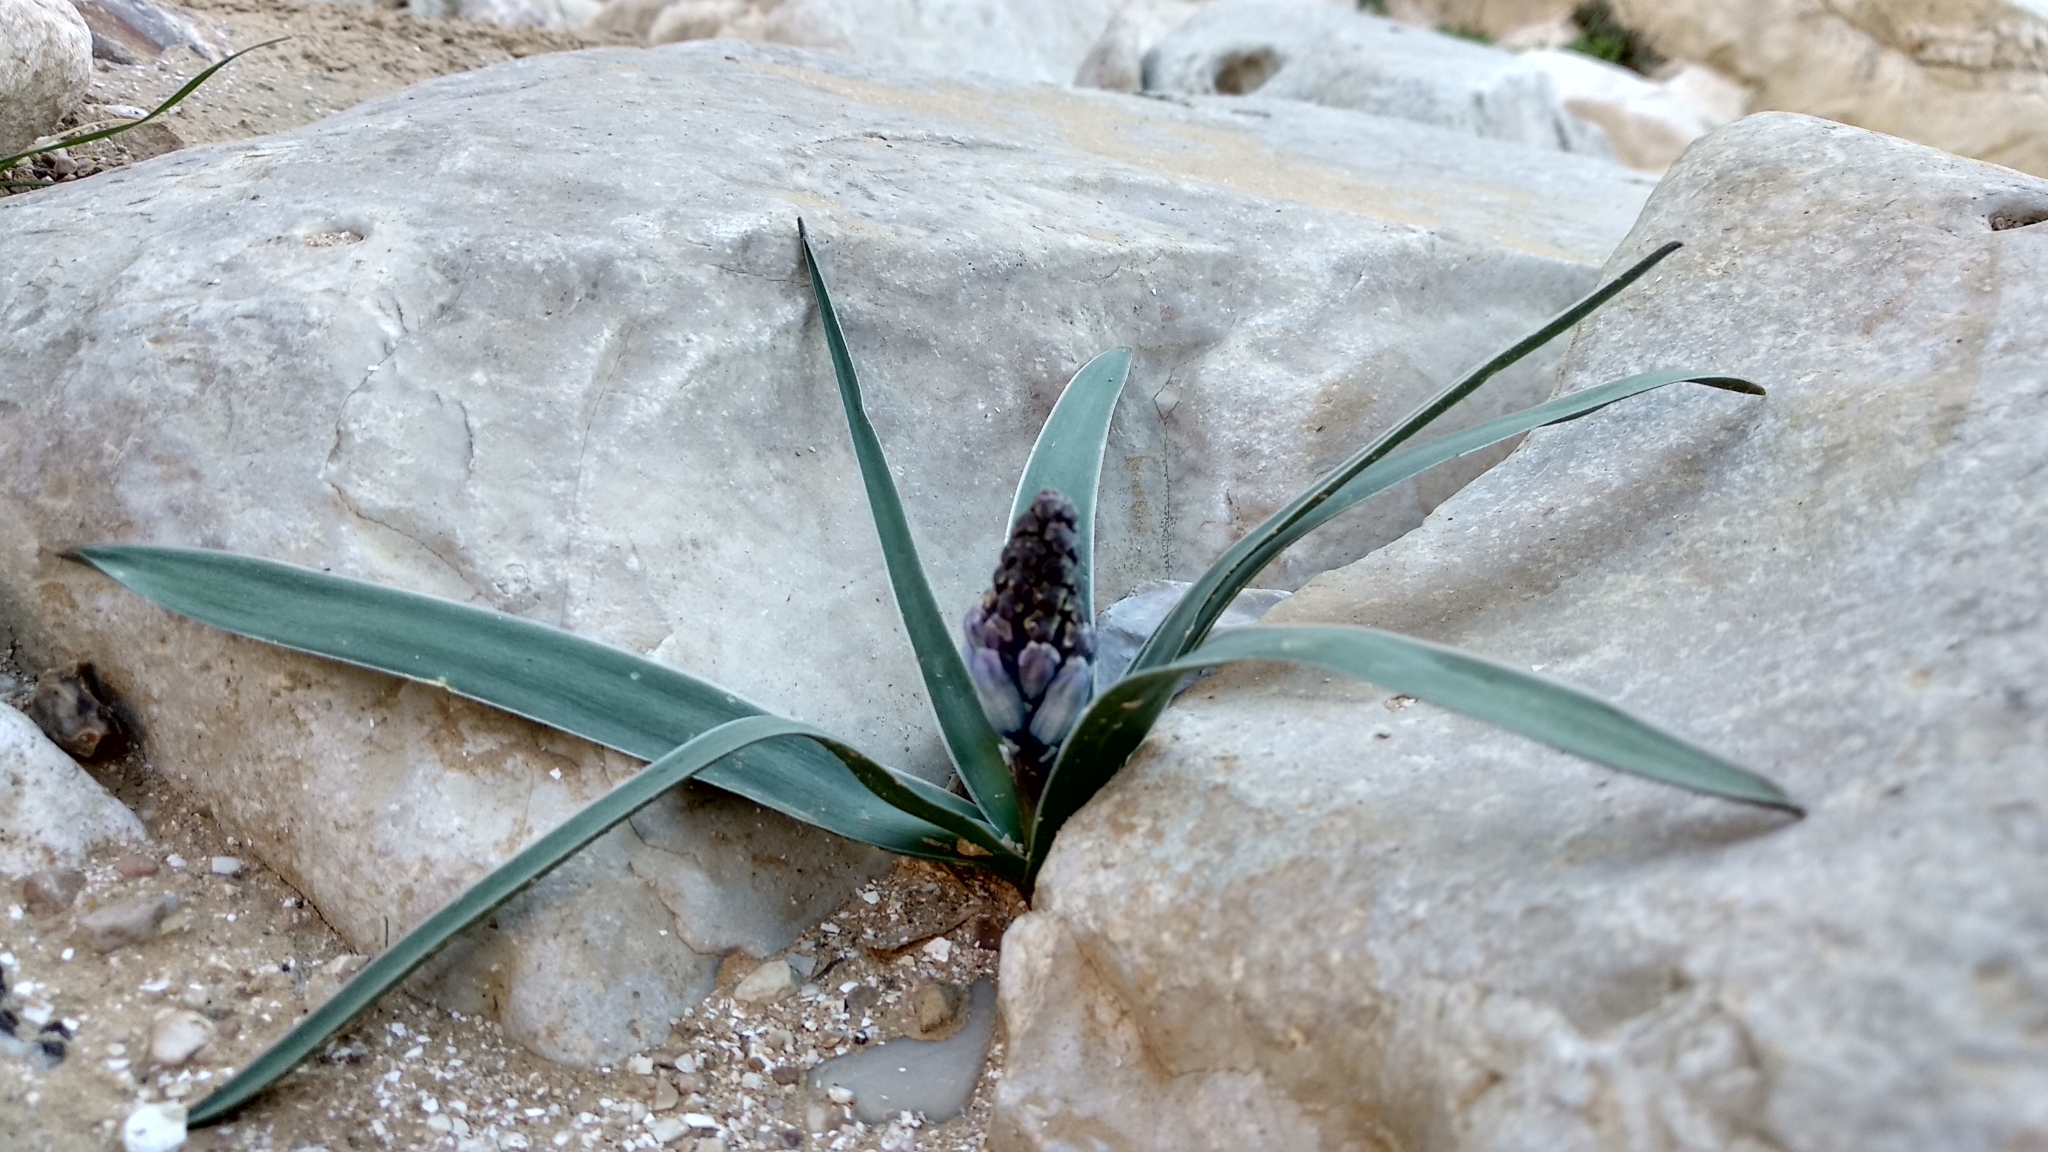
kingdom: Plantae
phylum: Tracheophyta
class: Liliopsida
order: Asparagales
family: Asparagaceae
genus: Bellevalia
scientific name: Bellevalia desertorum
